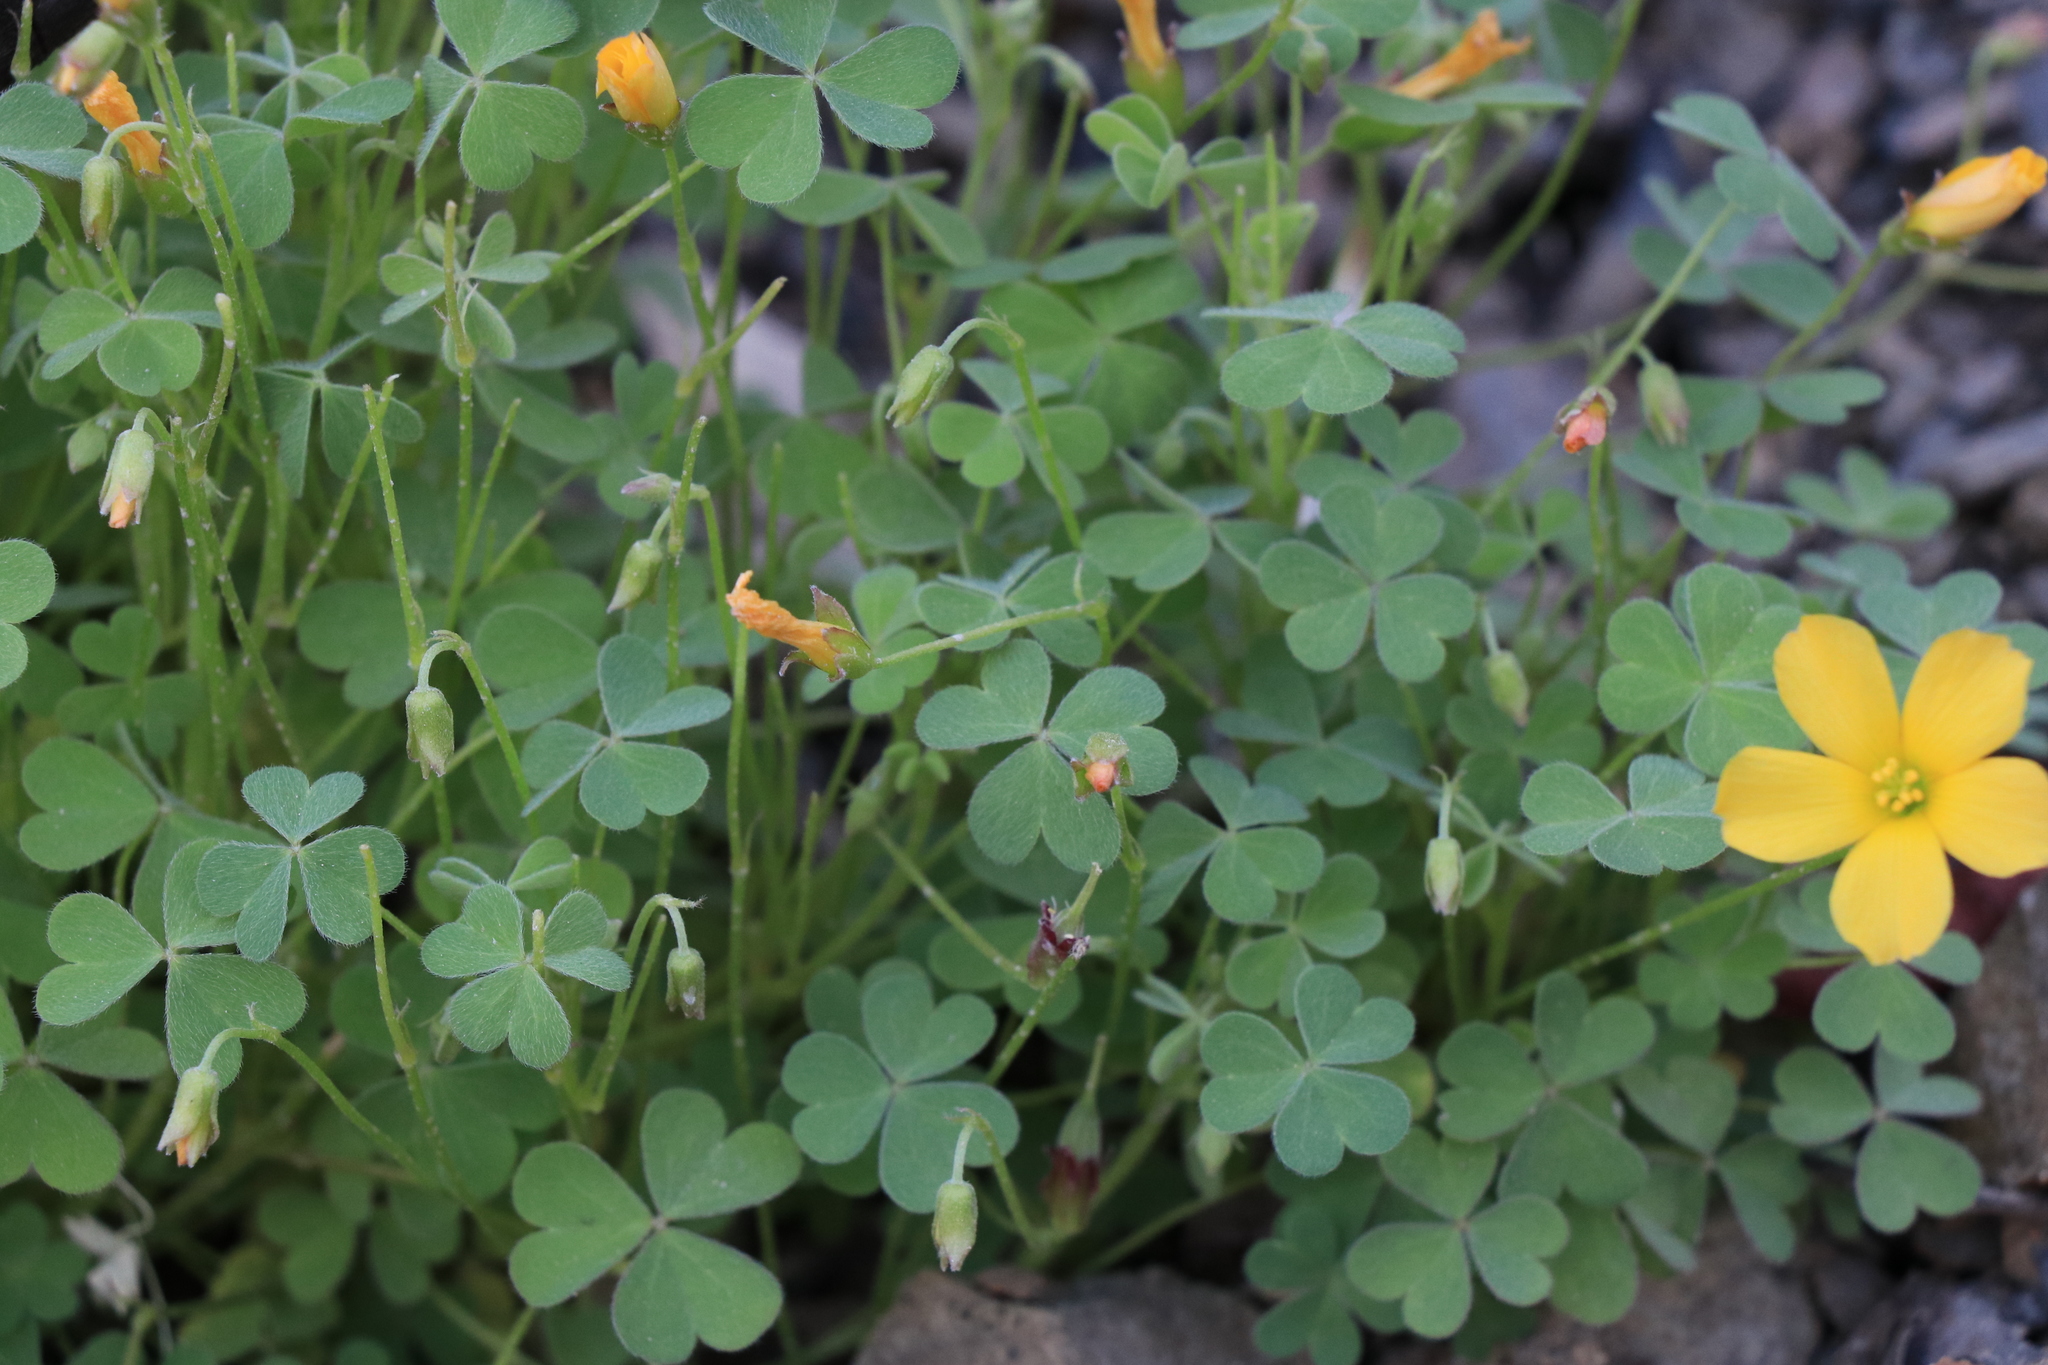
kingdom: Plantae
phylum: Tracheophyta
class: Magnoliopsida
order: Oxalidales
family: Oxalidaceae
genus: Oxalis
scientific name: Oxalis californica
